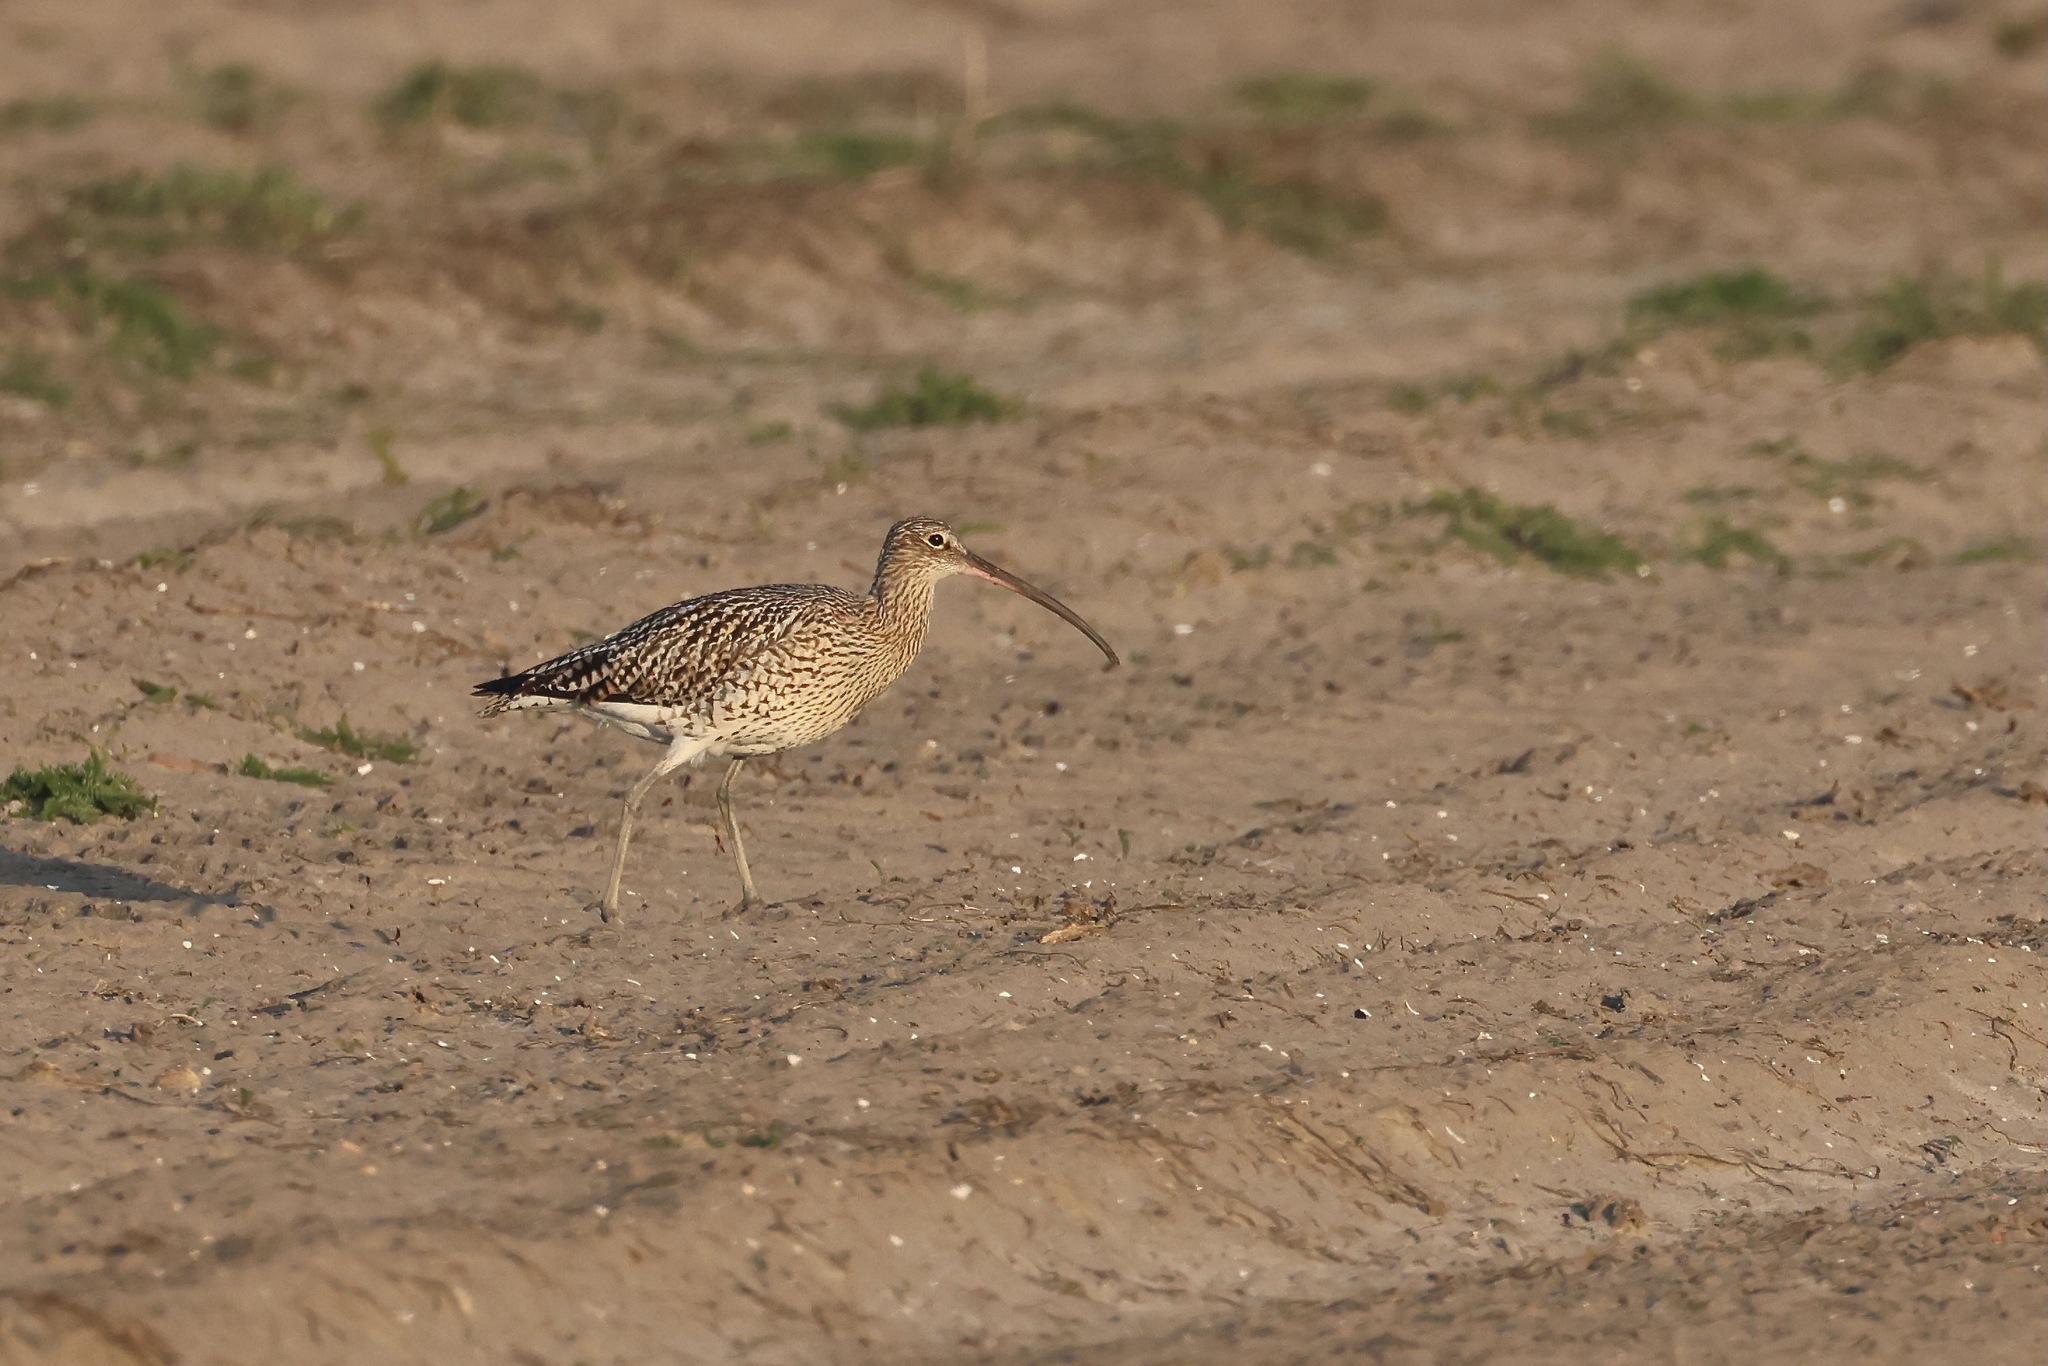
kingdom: Animalia
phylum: Chordata
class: Aves
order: Charadriiformes
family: Scolopacidae
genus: Numenius
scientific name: Numenius arquata
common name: Eurasian curlew
